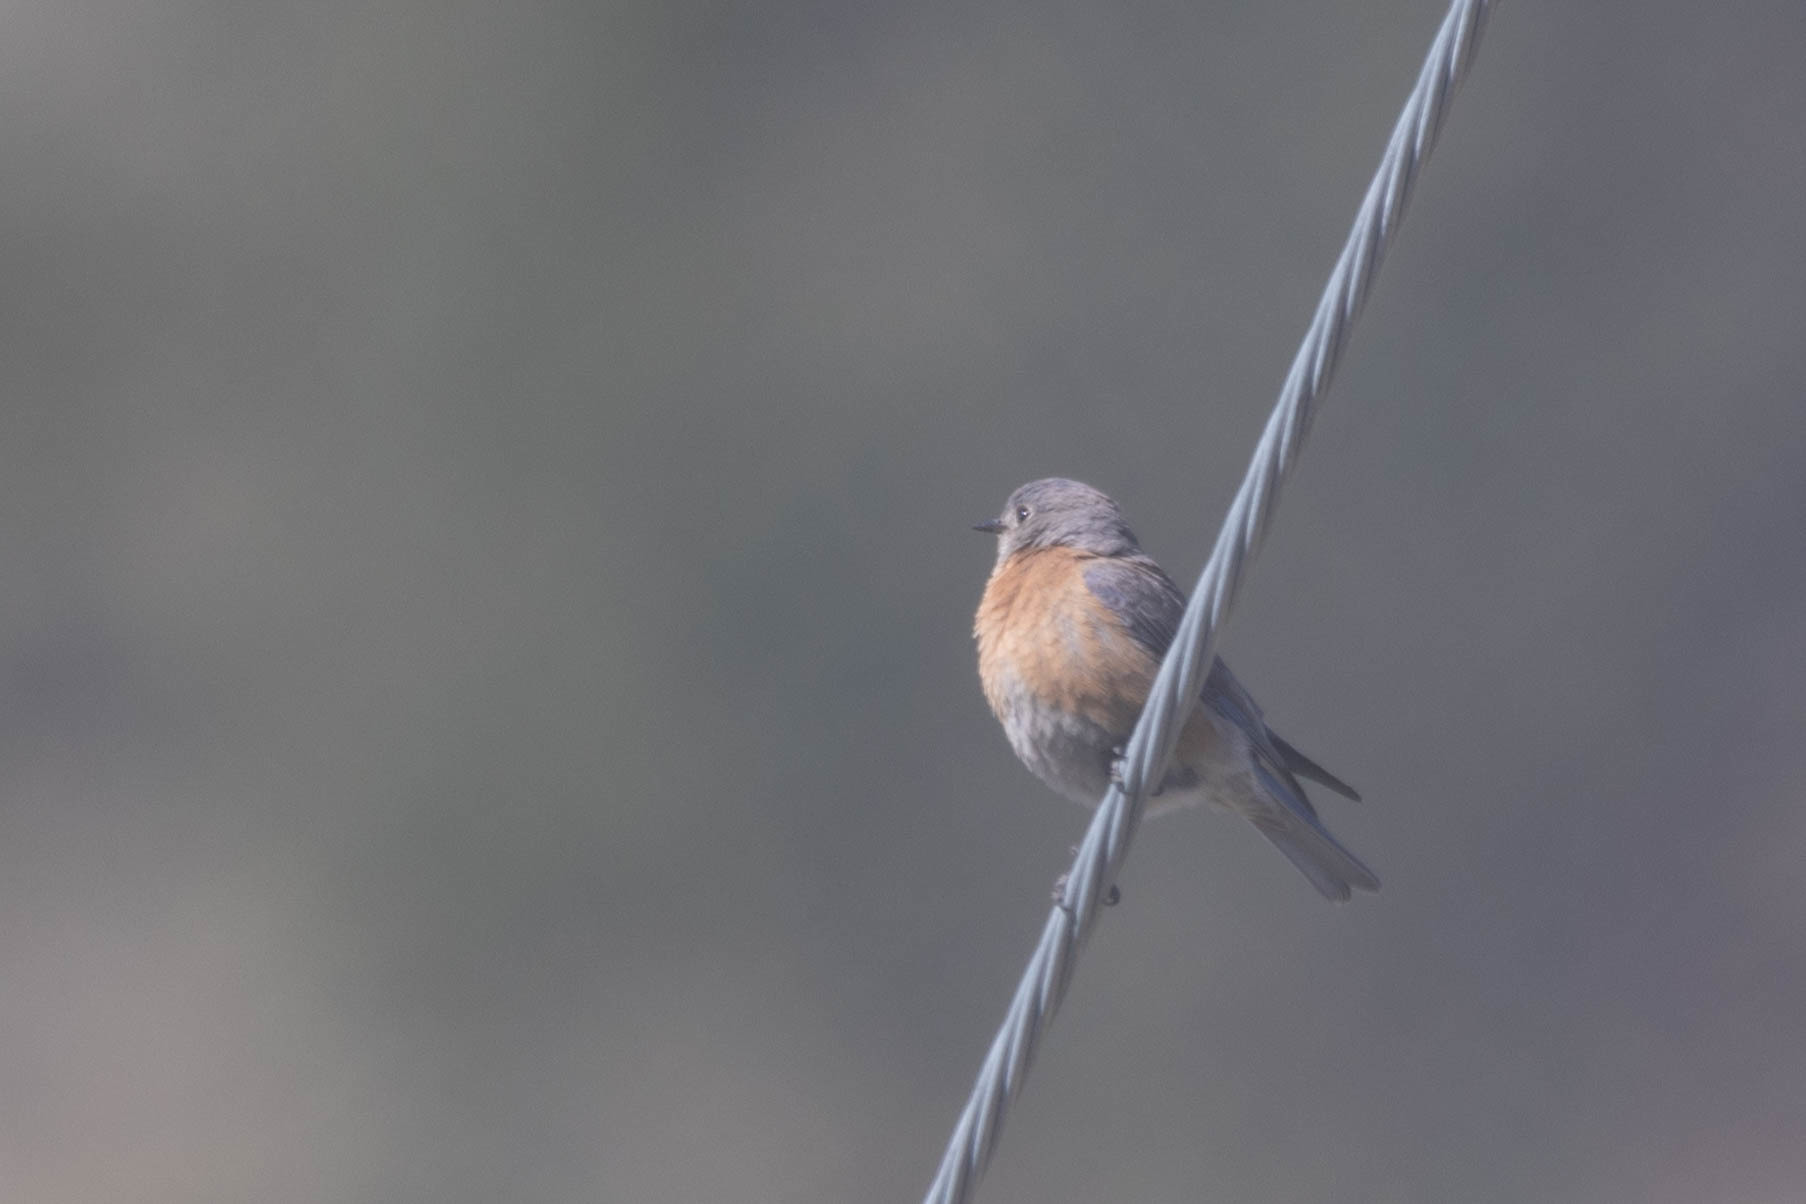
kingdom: Animalia
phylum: Chordata
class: Aves
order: Passeriformes
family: Turdidae
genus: Sialia
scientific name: Sialia mexicana
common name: Western bluebird
